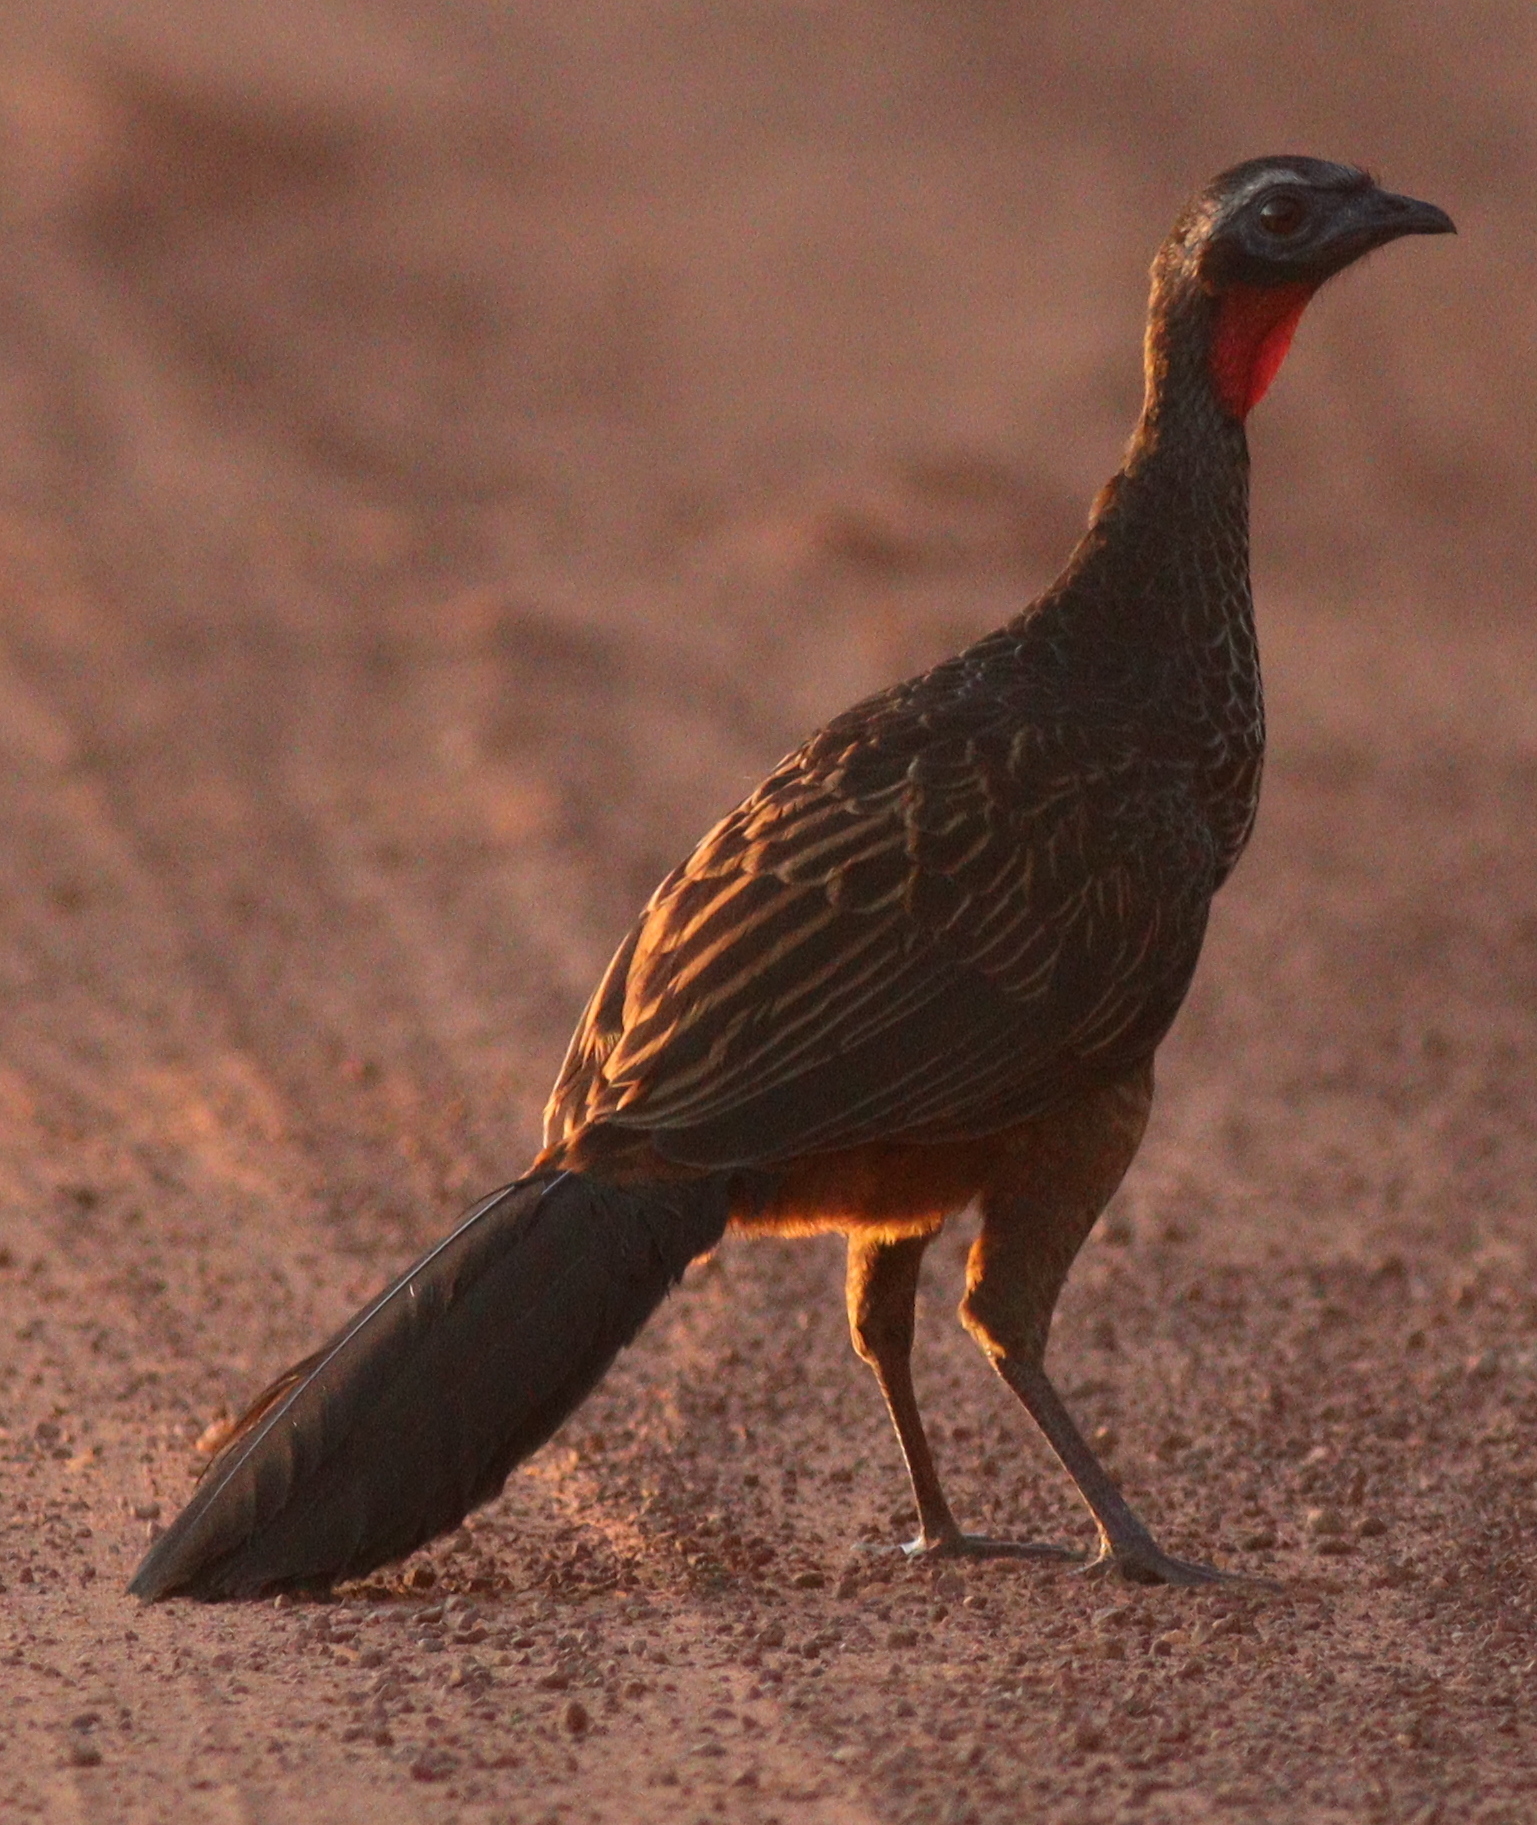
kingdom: Animalia
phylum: Chordata
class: Aves
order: Galliformes
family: Cracidae
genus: Penelope
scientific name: Penelope superciliaris
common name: Rusty-margined guan
